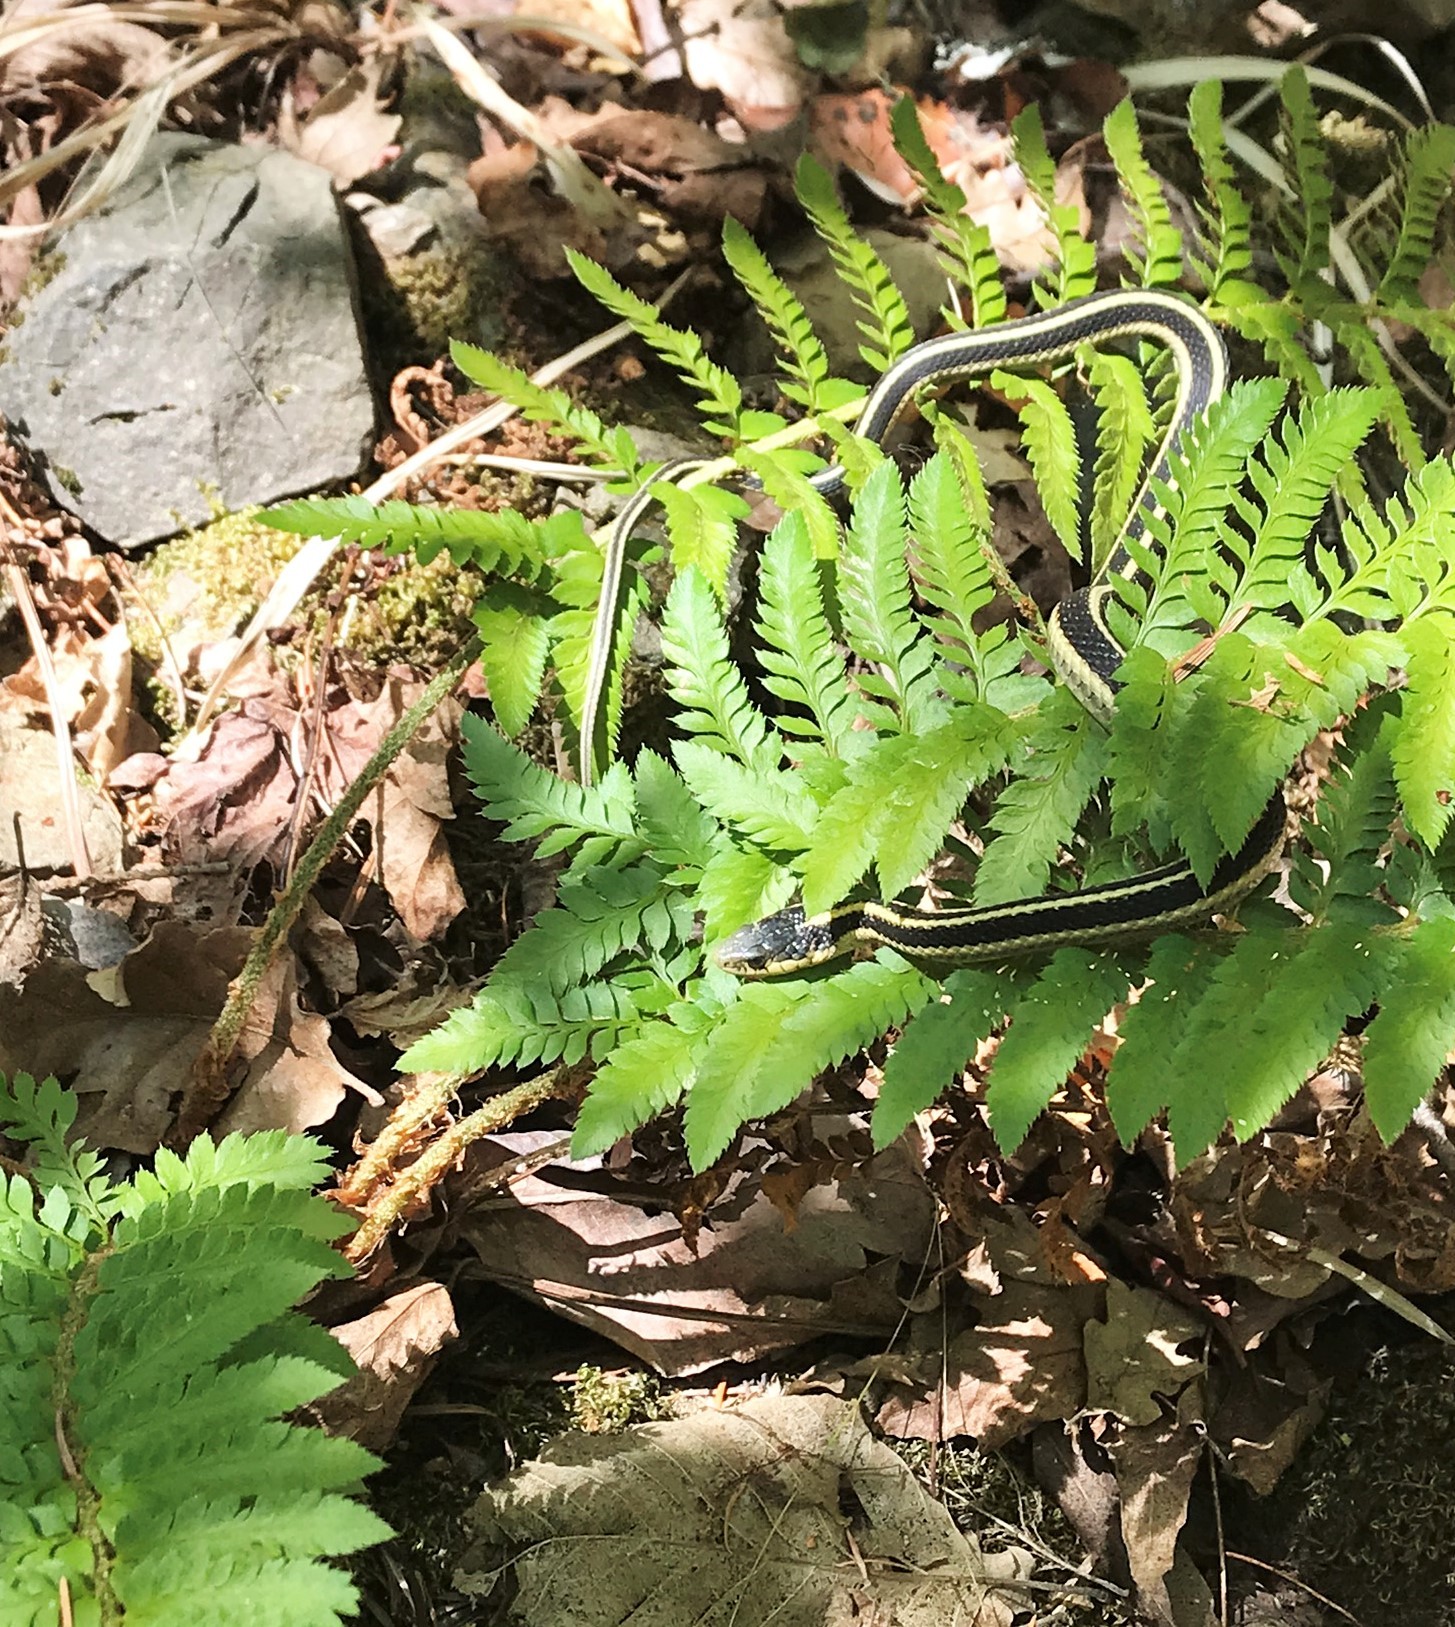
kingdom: Animalia
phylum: Chordata
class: Squamata
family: Colubridae
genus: Thamnophis
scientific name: Thamnophis atratus
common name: Pacific coast aquatic garter snake
